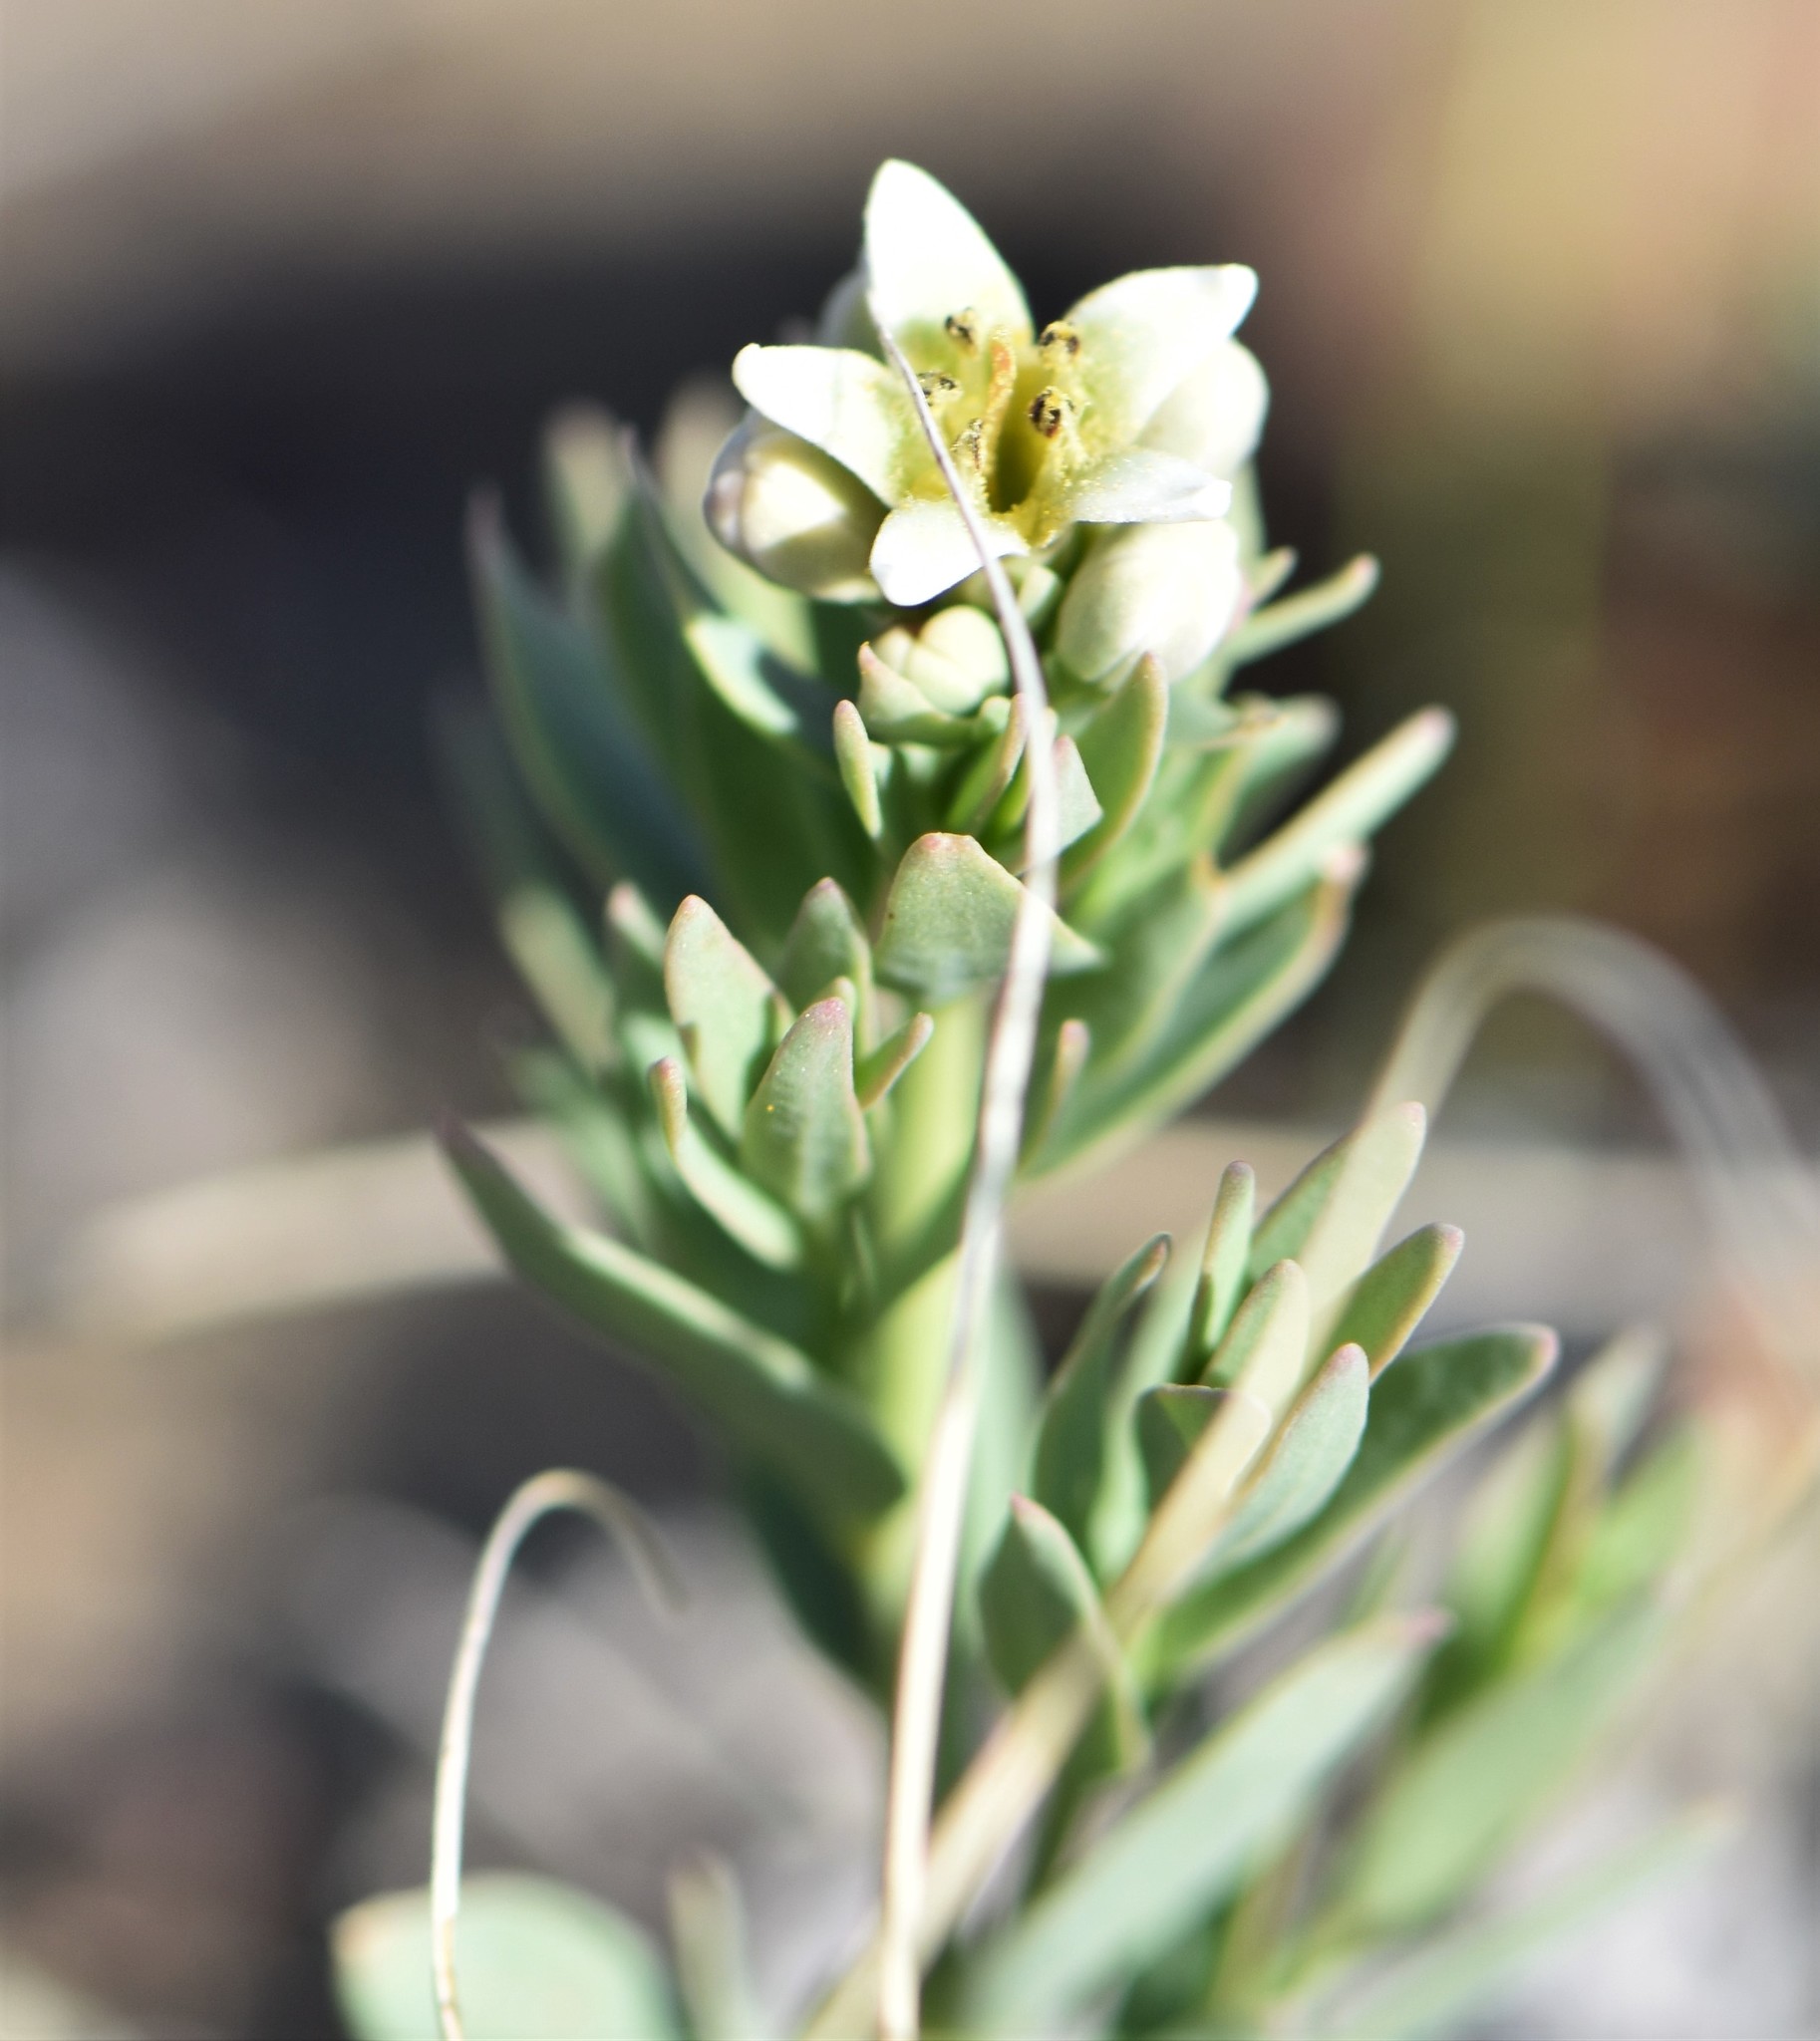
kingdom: Plantae
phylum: Tracheophyta
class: Magnoliopsida
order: Santalales
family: Comandraceae
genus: Comandra
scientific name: Comandra umbellata
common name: Bastard toadflax
